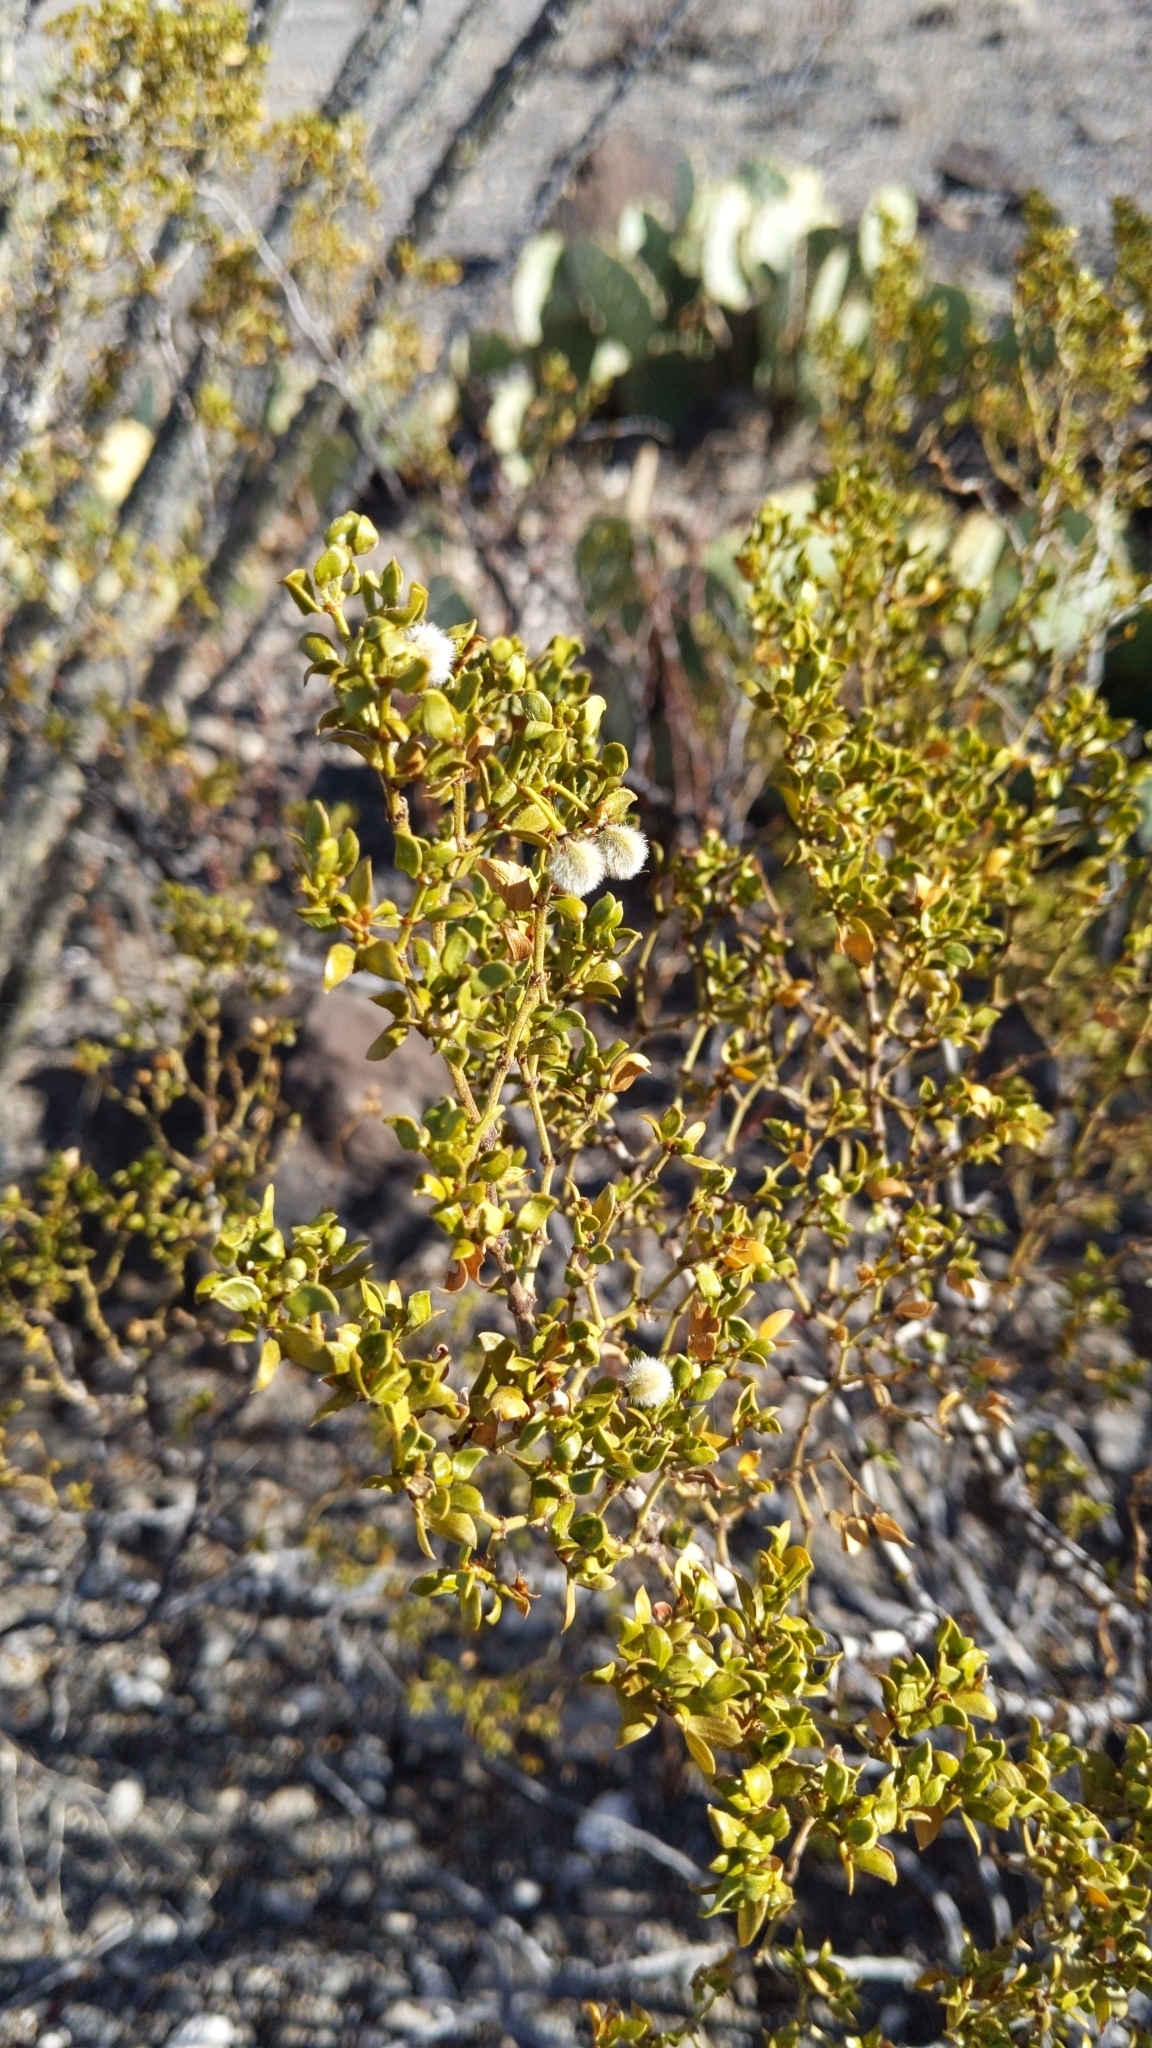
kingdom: Plantae
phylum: Tracheophyta
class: Magnoliopsida
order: Zygophyllales
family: Zygophyllaceae
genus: Larrea
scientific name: Larrea tridentata
